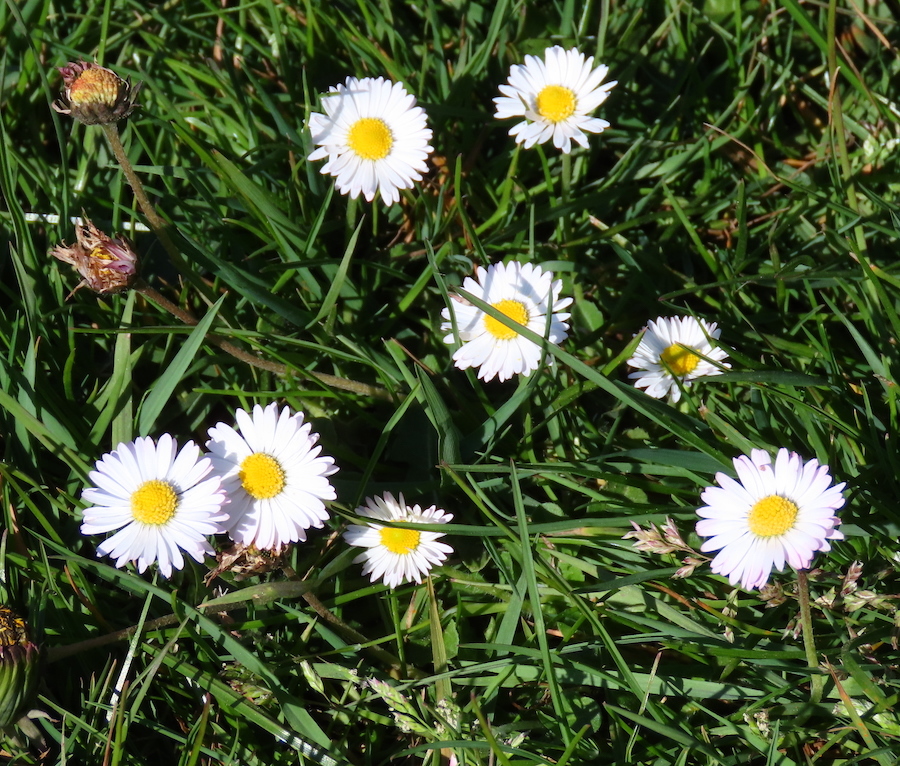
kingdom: Plantae
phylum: Tracheophyta
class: Magnoliopsida
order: Asterales
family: Asteraceae
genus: Bellis
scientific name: Bellis perennis
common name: Lawndaisy
